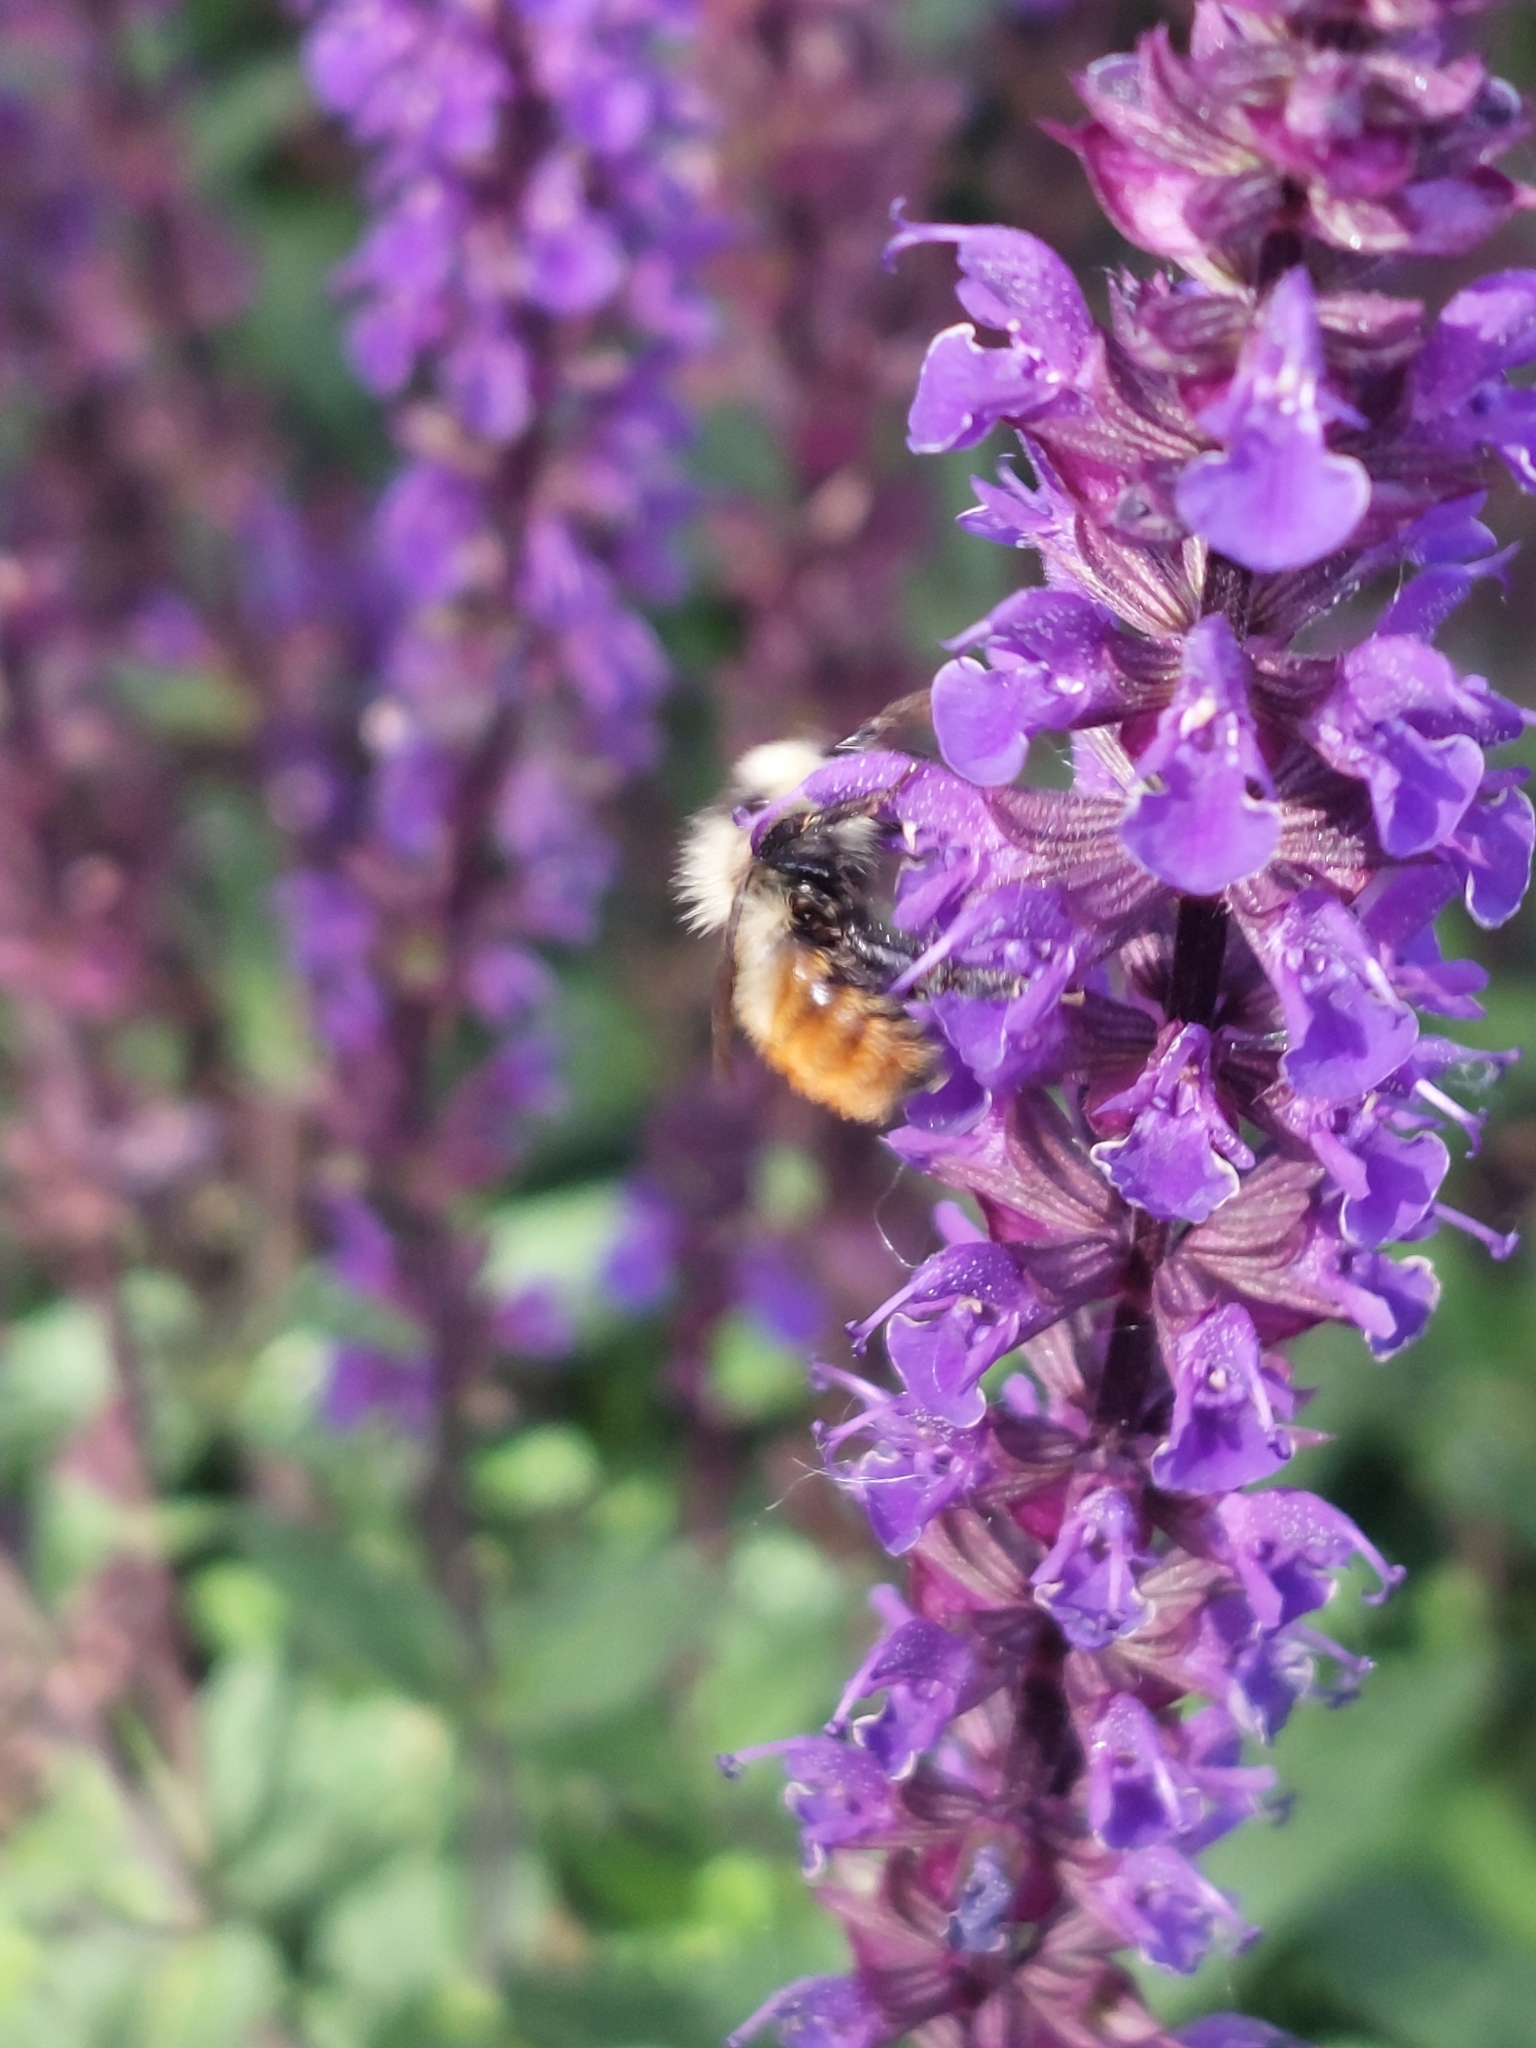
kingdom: Animalia
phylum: Arthropoda
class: Insecta
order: Hymenoptera
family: Apidae
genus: Bombus
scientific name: Bombus rufocinctus
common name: Red-belted bumble bee
